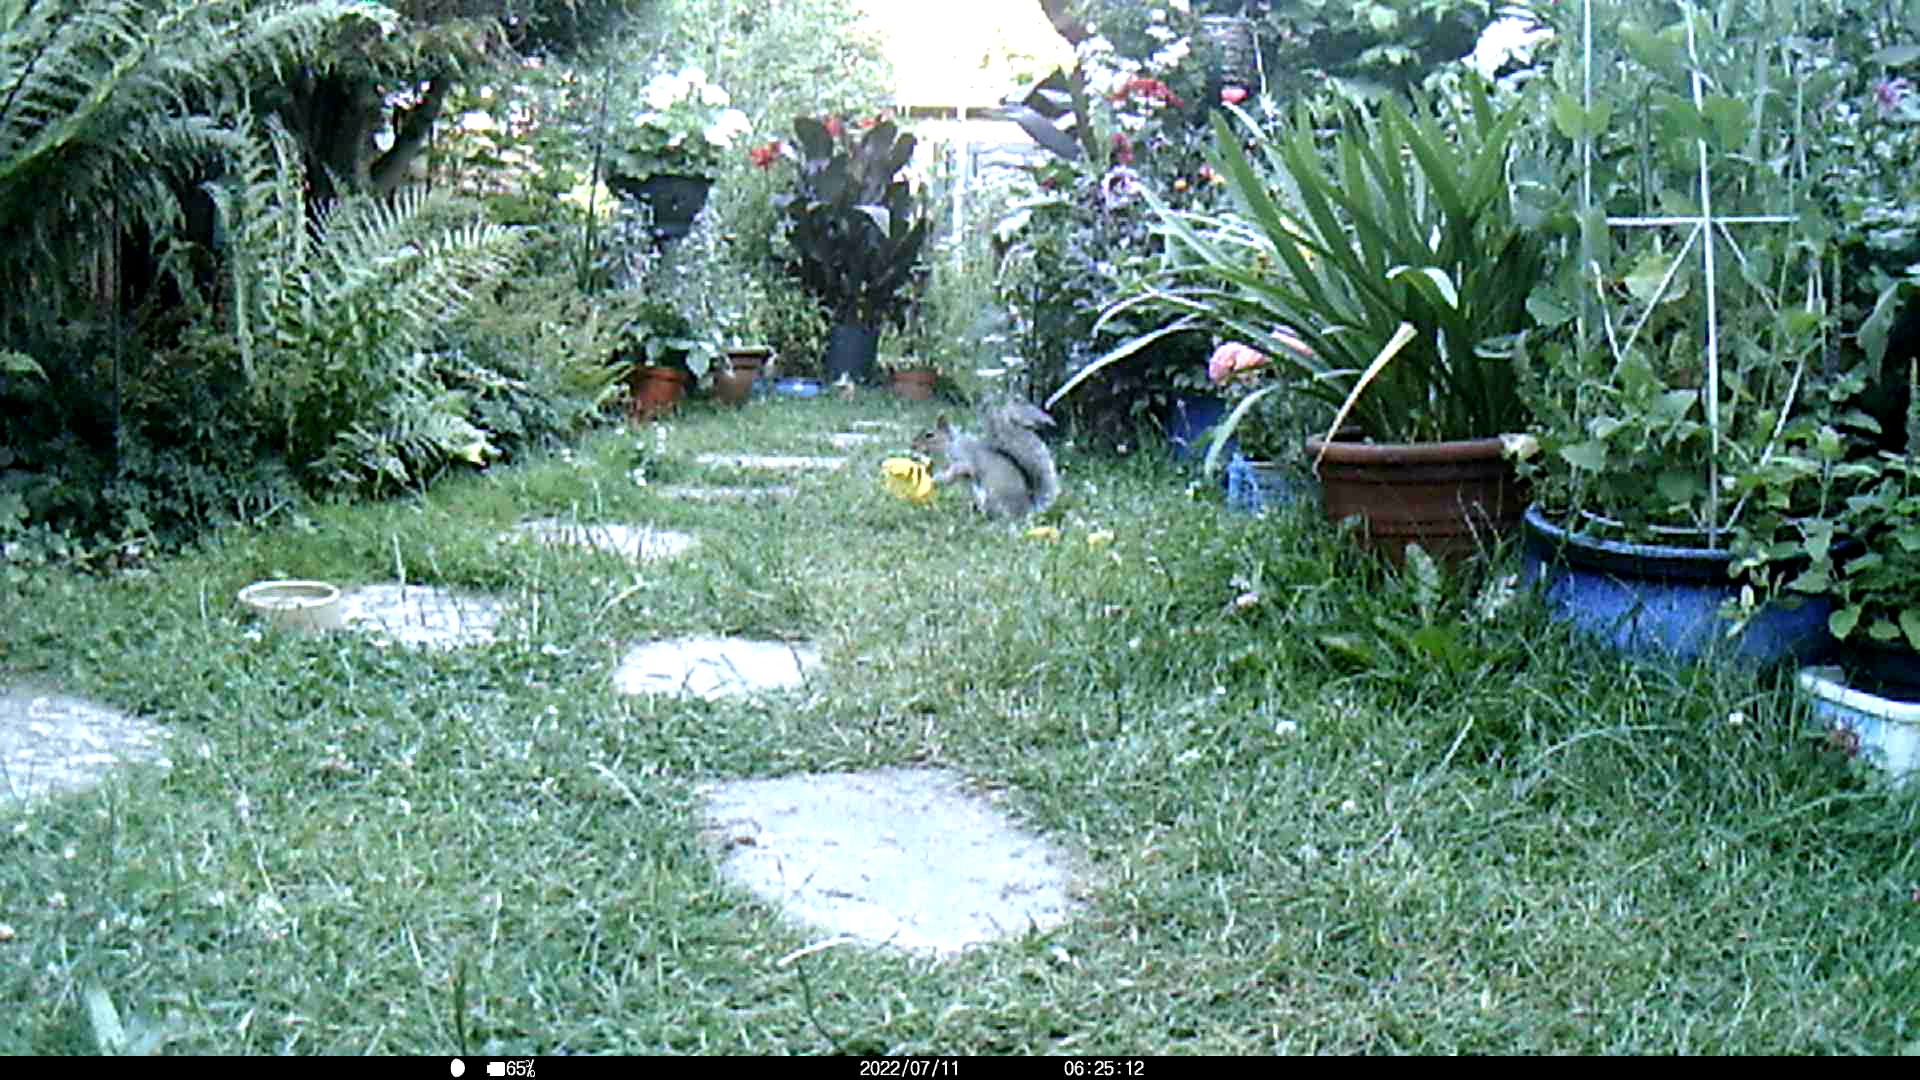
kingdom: Animalia
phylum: Chordata
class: Mammalia
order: Rodentia
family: Sciuridae
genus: Sciurus
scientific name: Sciurus carolinensis
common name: Eastern gray squirrel
